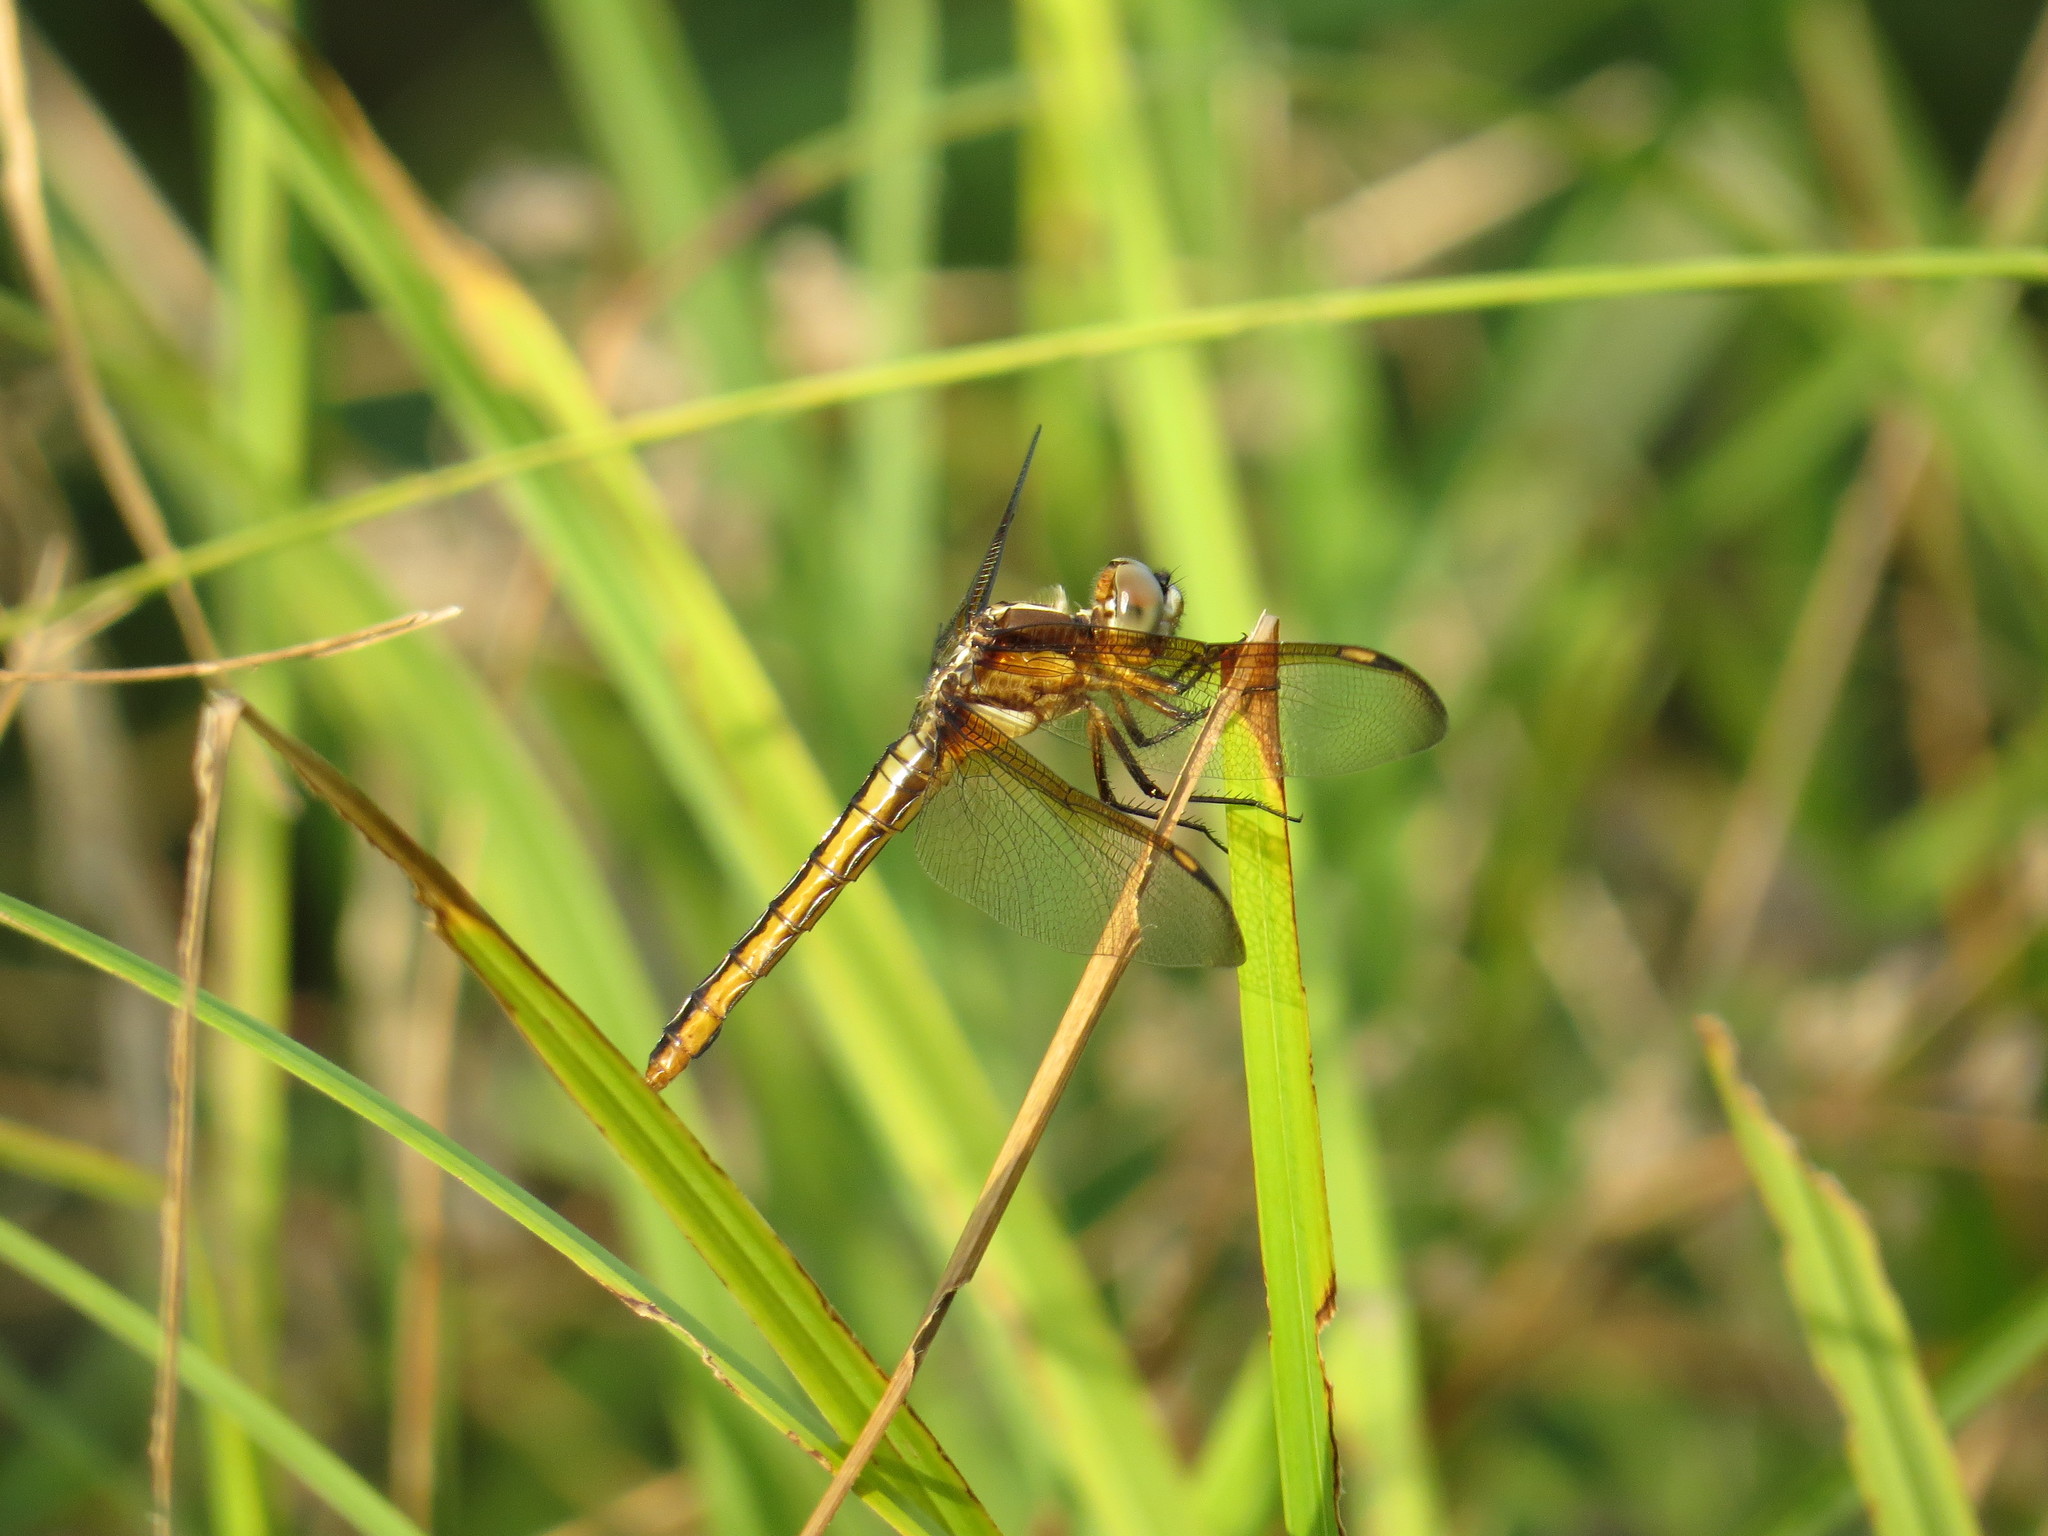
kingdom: Animalia
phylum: Arthropoda
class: Insecta
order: Odonata
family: Libellulidae
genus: Libellula
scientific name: Libellula comanche
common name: Comanche skimmer
